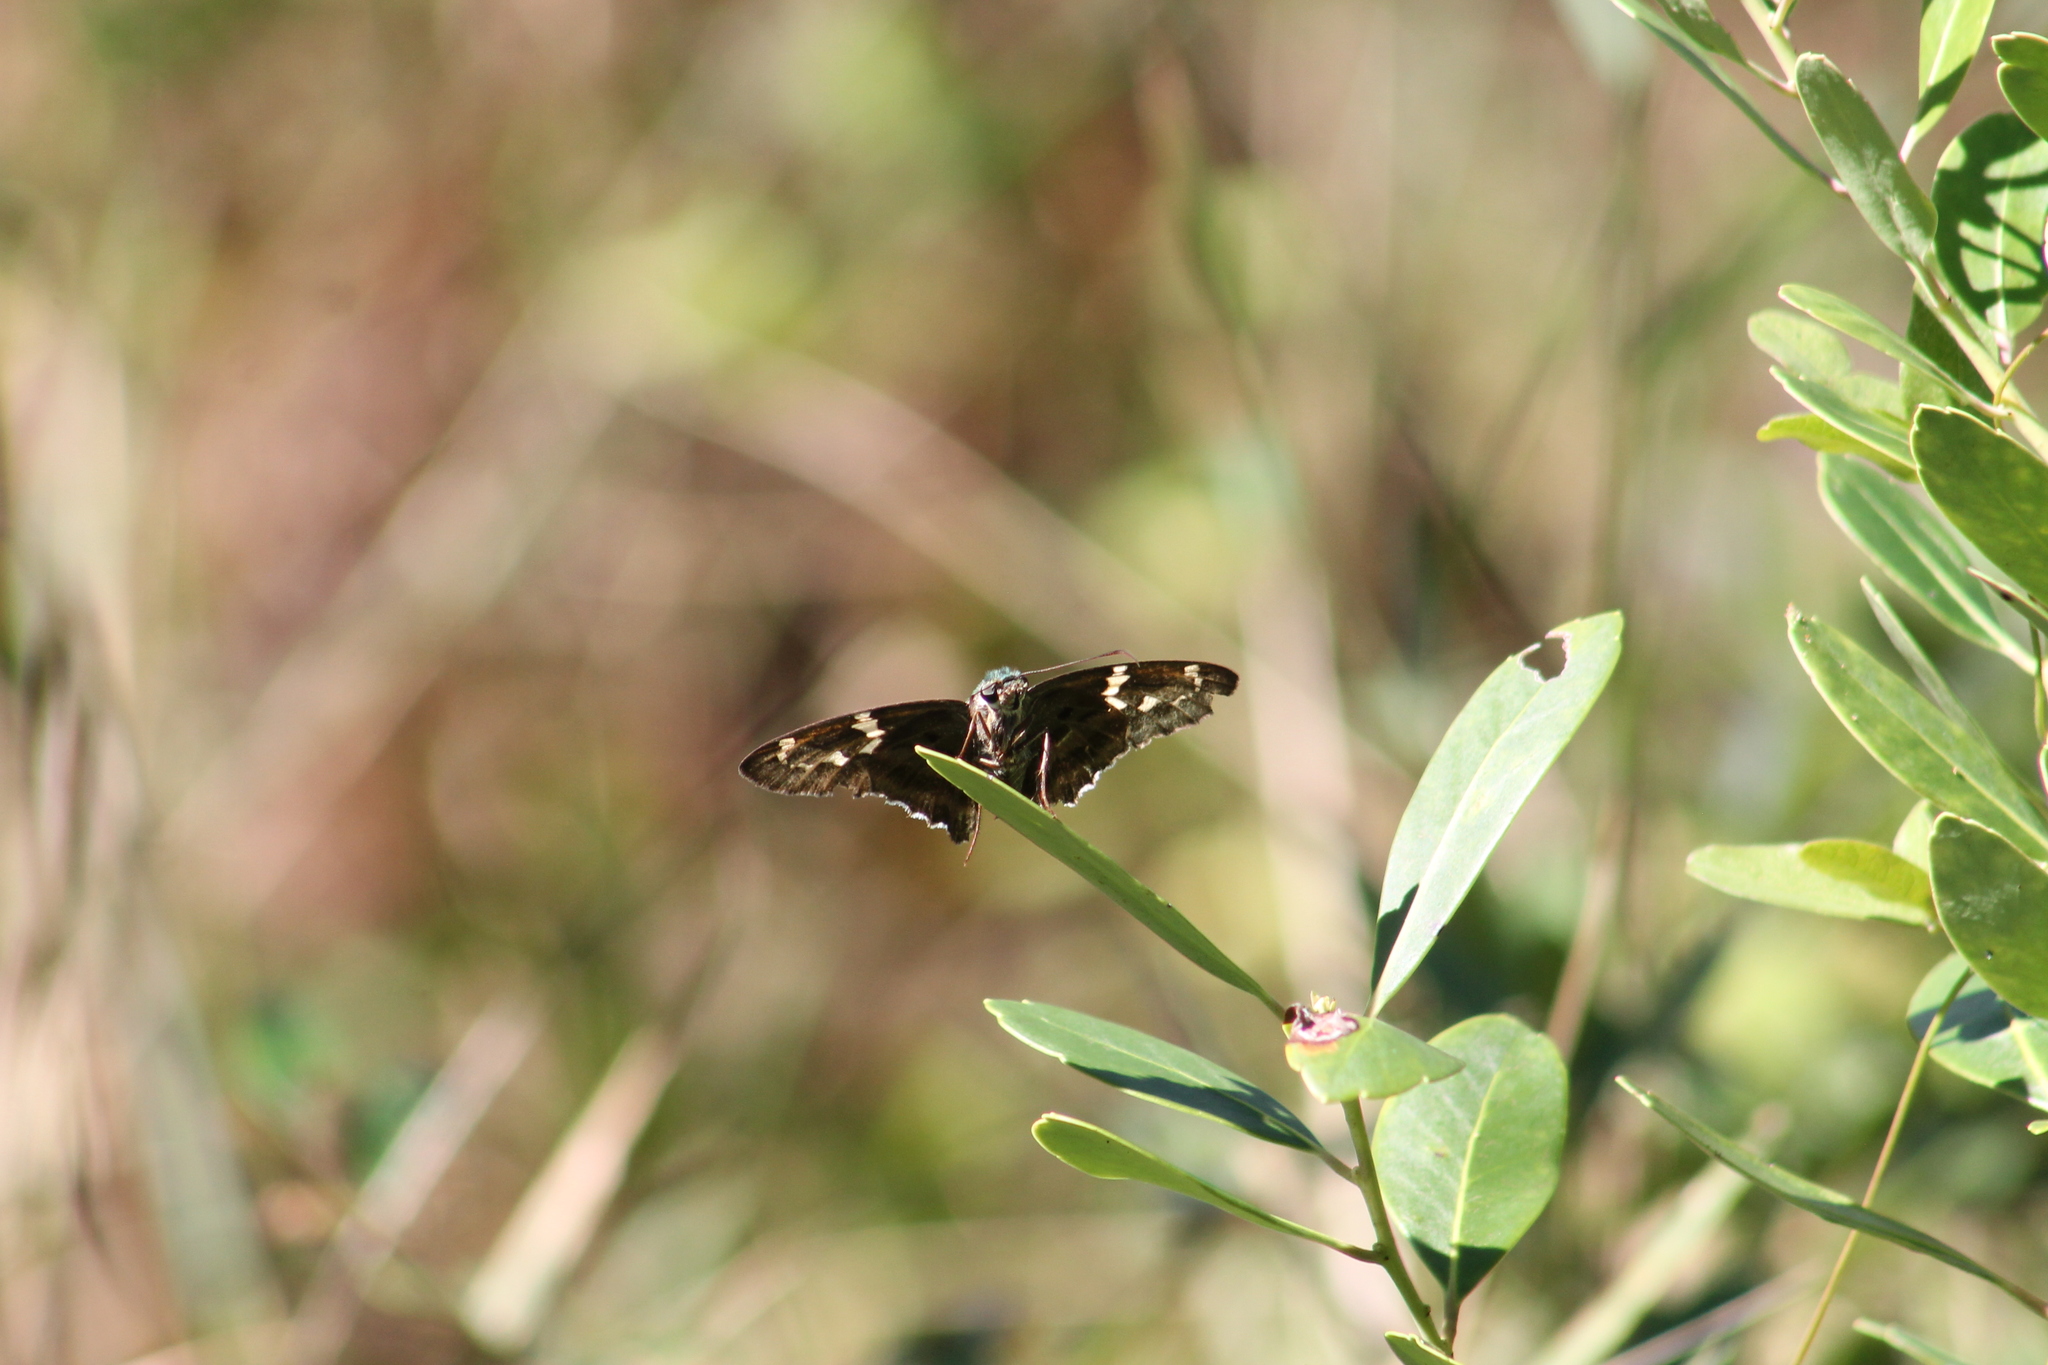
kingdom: Animalia
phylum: Arthropoda
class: Insecta
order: Lepidoptera
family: Hesperiidae
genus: Urbanus
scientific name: Urbanus proteus
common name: Long-tailed skipper
